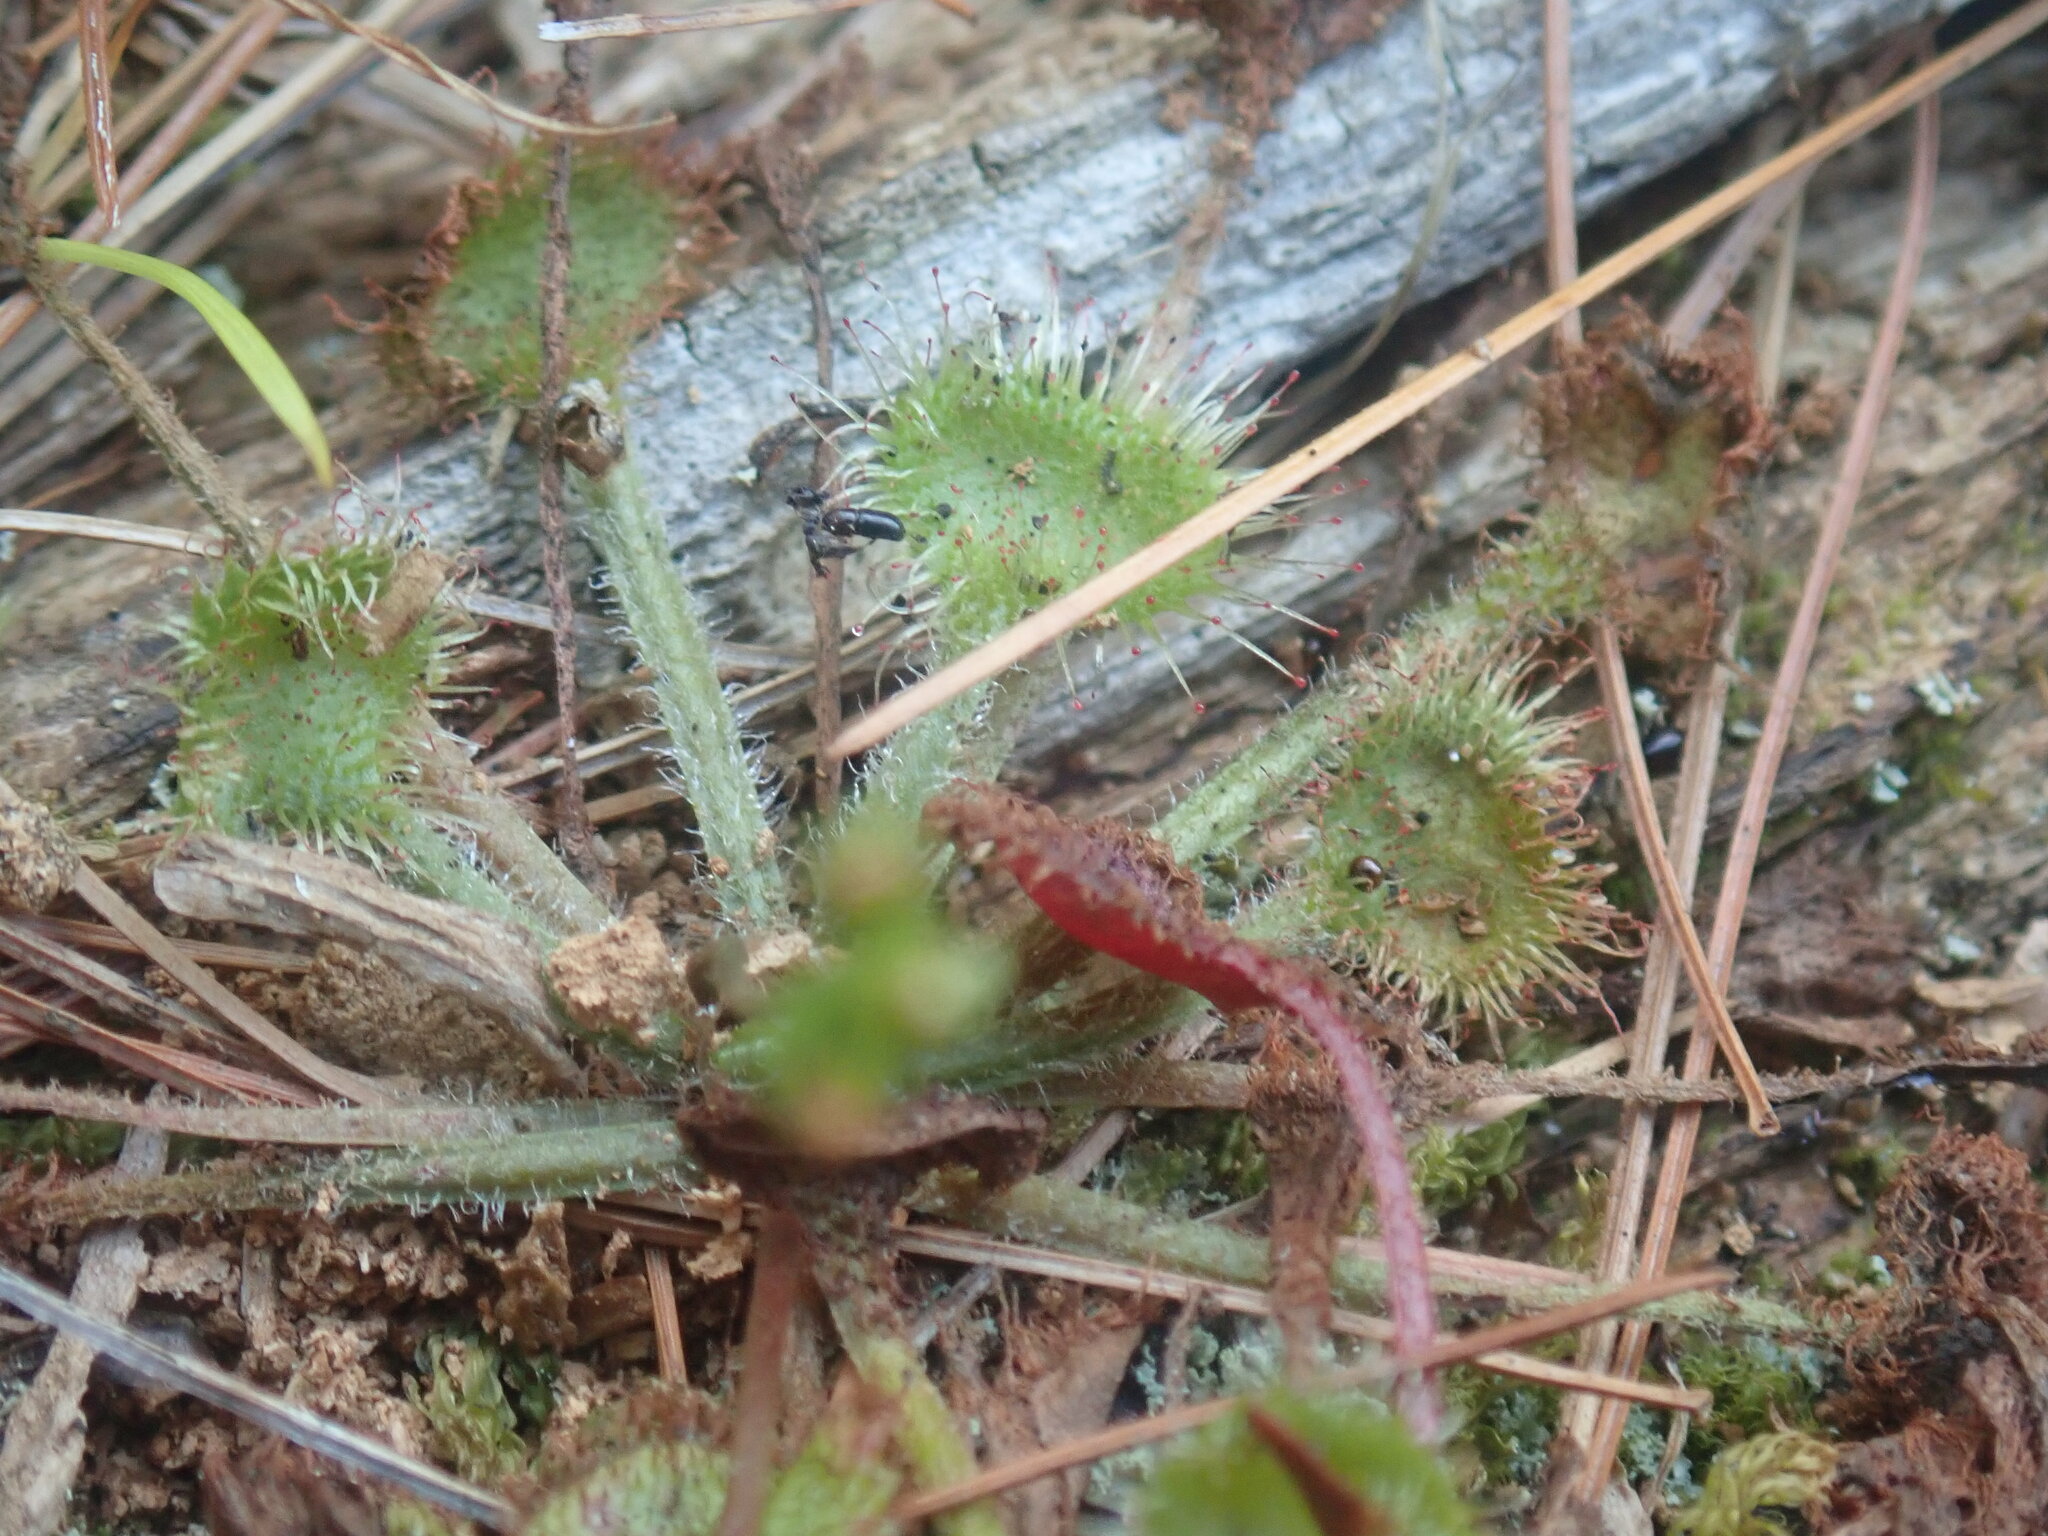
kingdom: Plantae
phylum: Tracheophyta
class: Magnoliopsida
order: Caryophyllales
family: Droseraceae
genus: Drosera
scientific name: Drosera rotundifolia
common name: Round-leaved sundew
